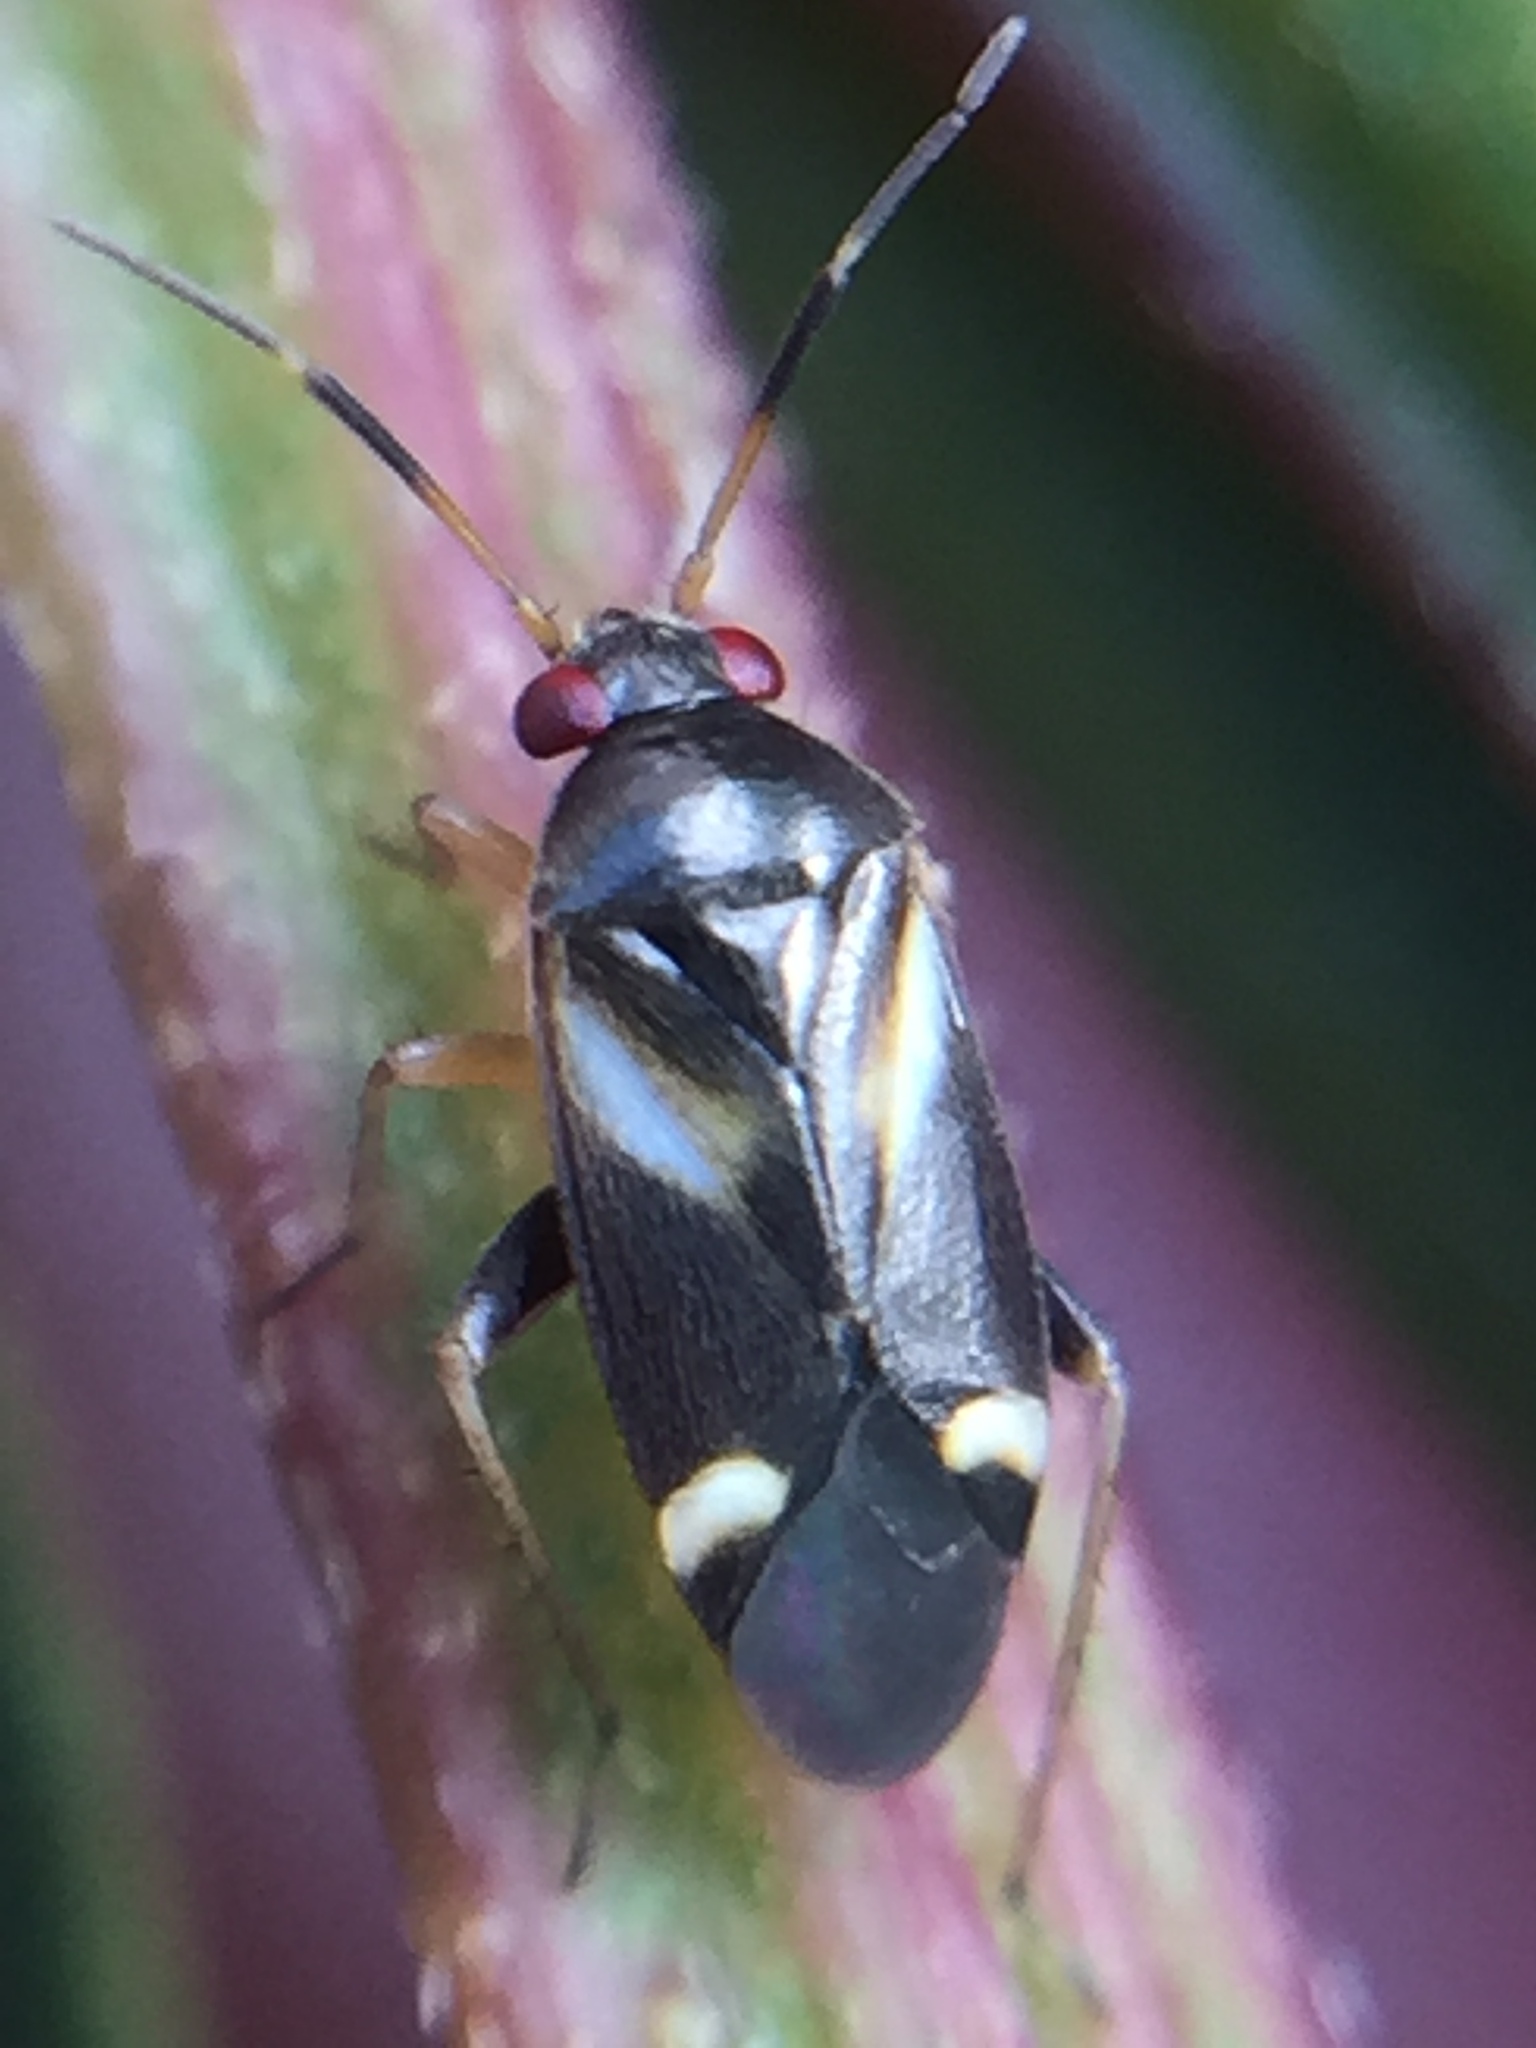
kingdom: Animalia
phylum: Arthropoda
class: Insecta
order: Hemiptera
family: Miridae
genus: Ausejanus
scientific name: Ausejanus albisignatus
